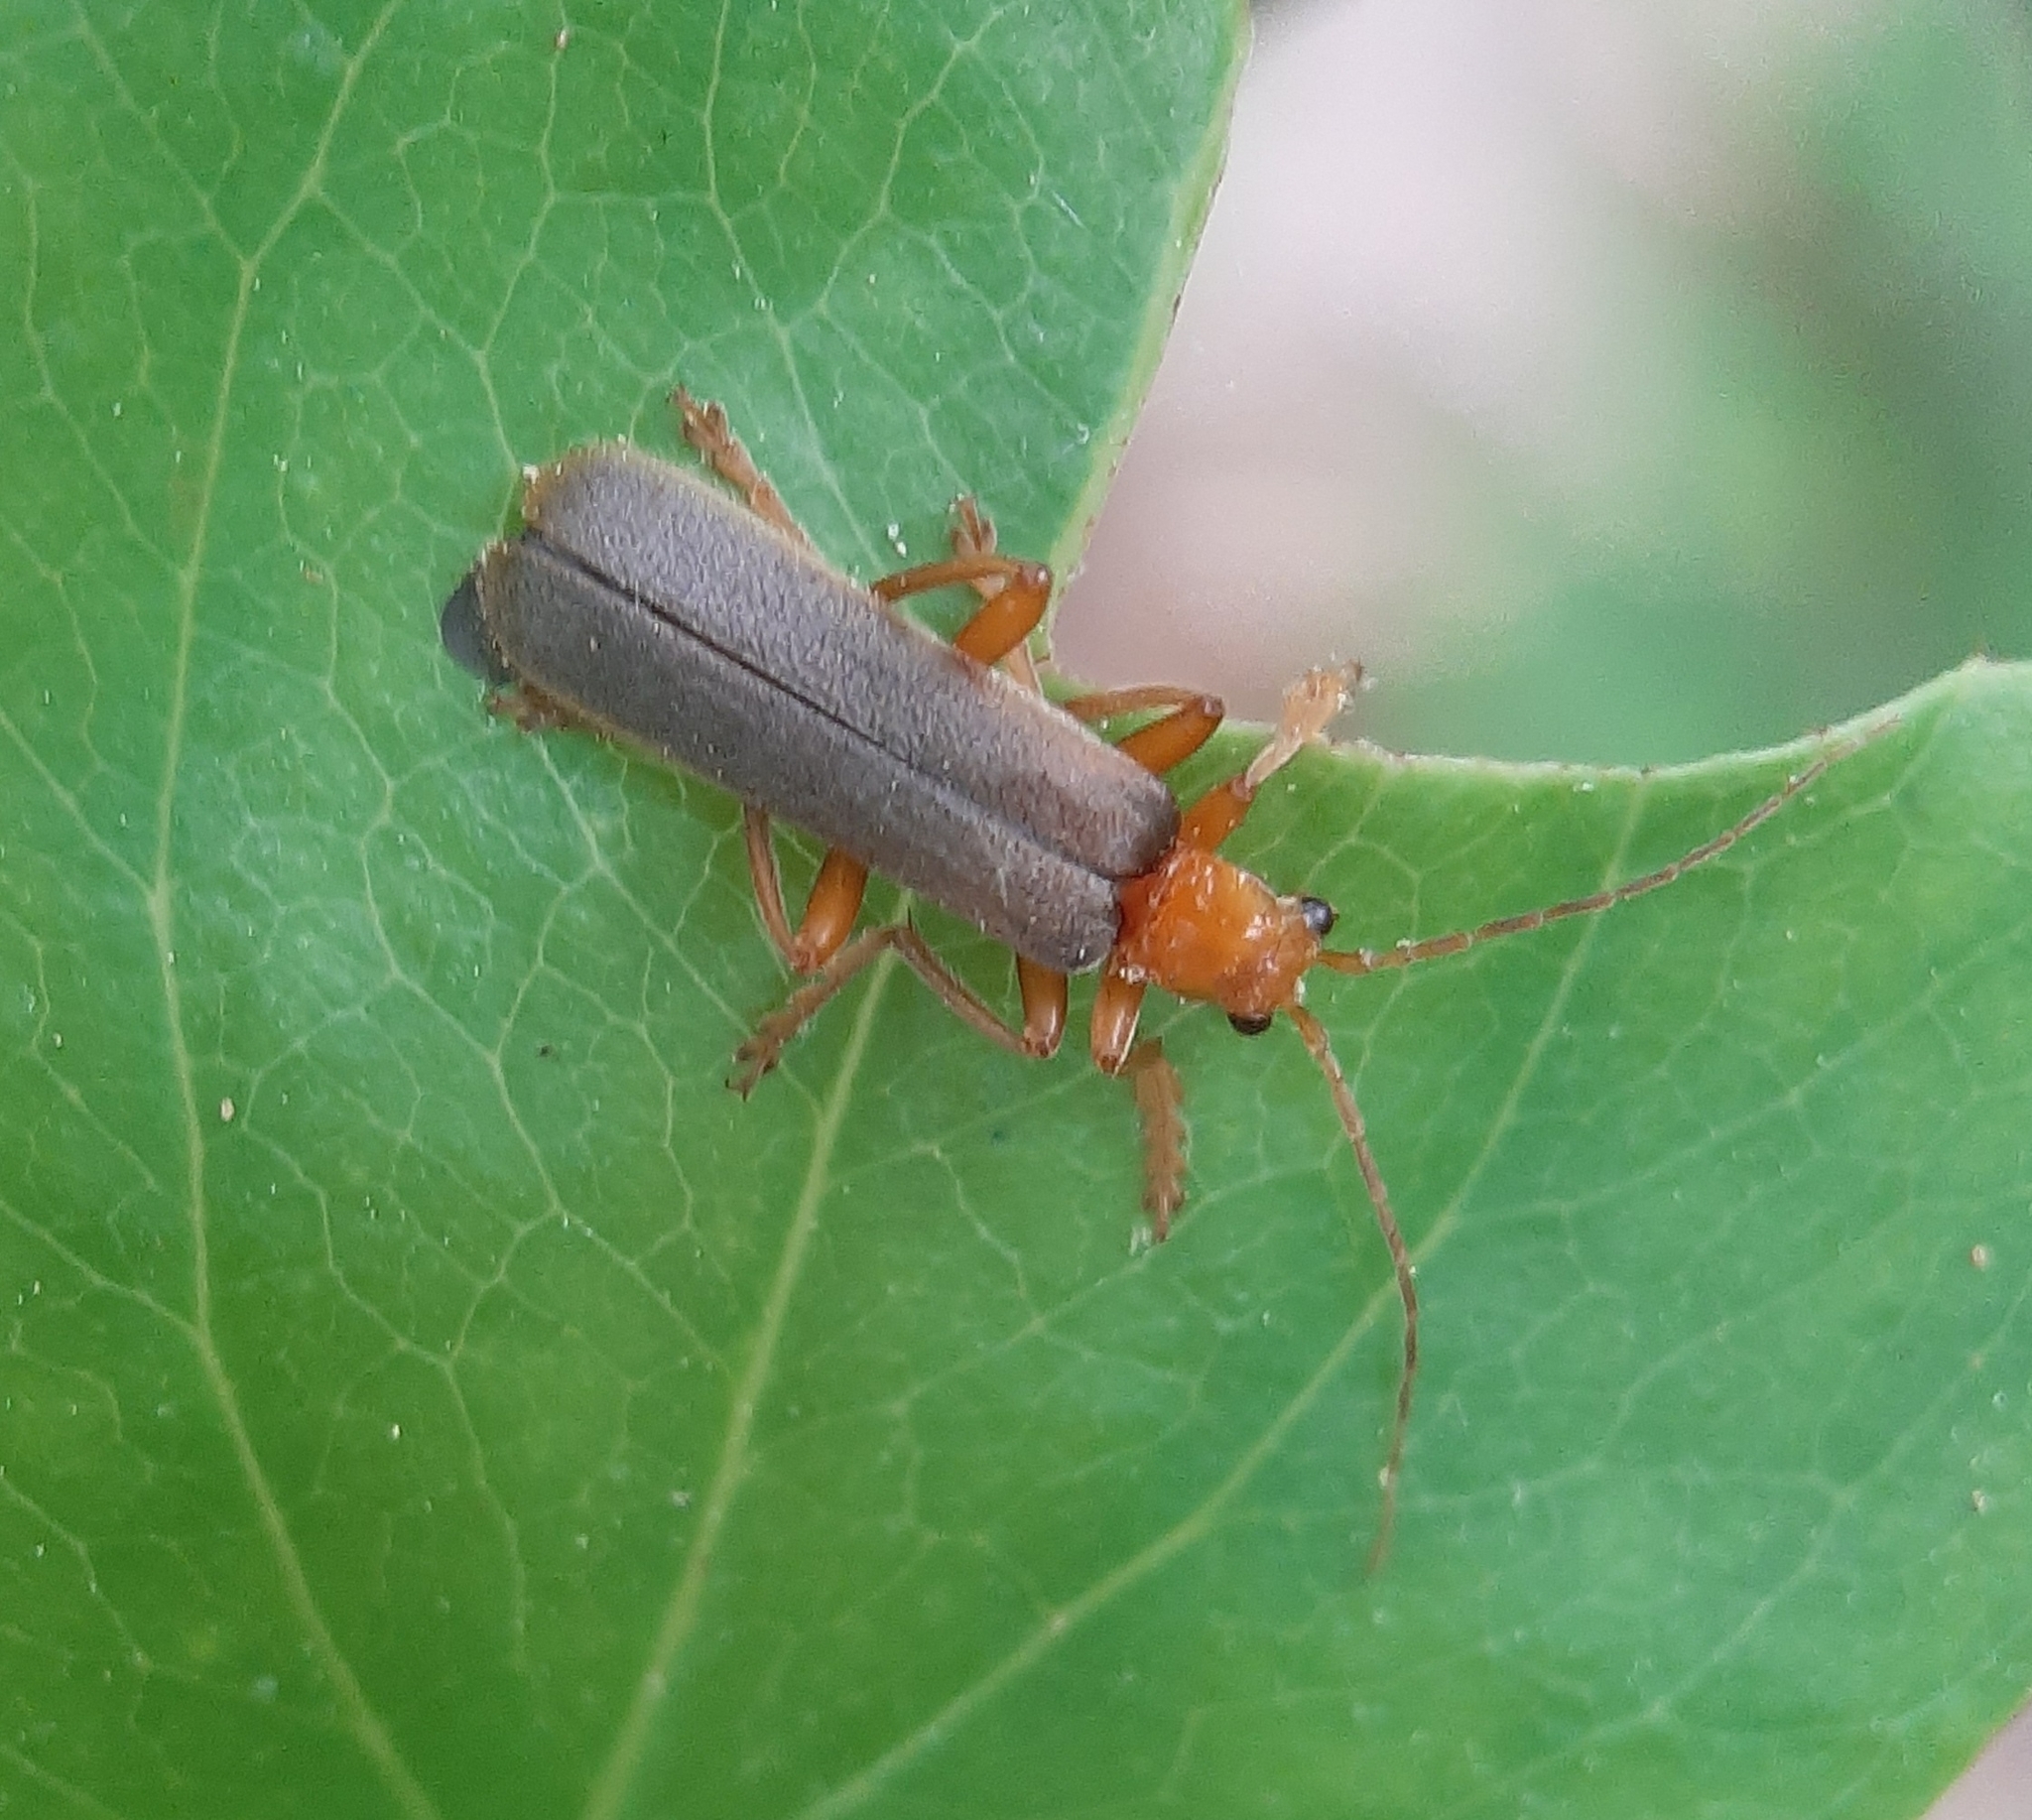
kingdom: Animalia
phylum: Arthropoda
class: Insecta
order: Coleoptera
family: Cantharidae
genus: Pacificanthia
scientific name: Pacificanthia rotundicollis
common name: Brown leatherwing beetle
